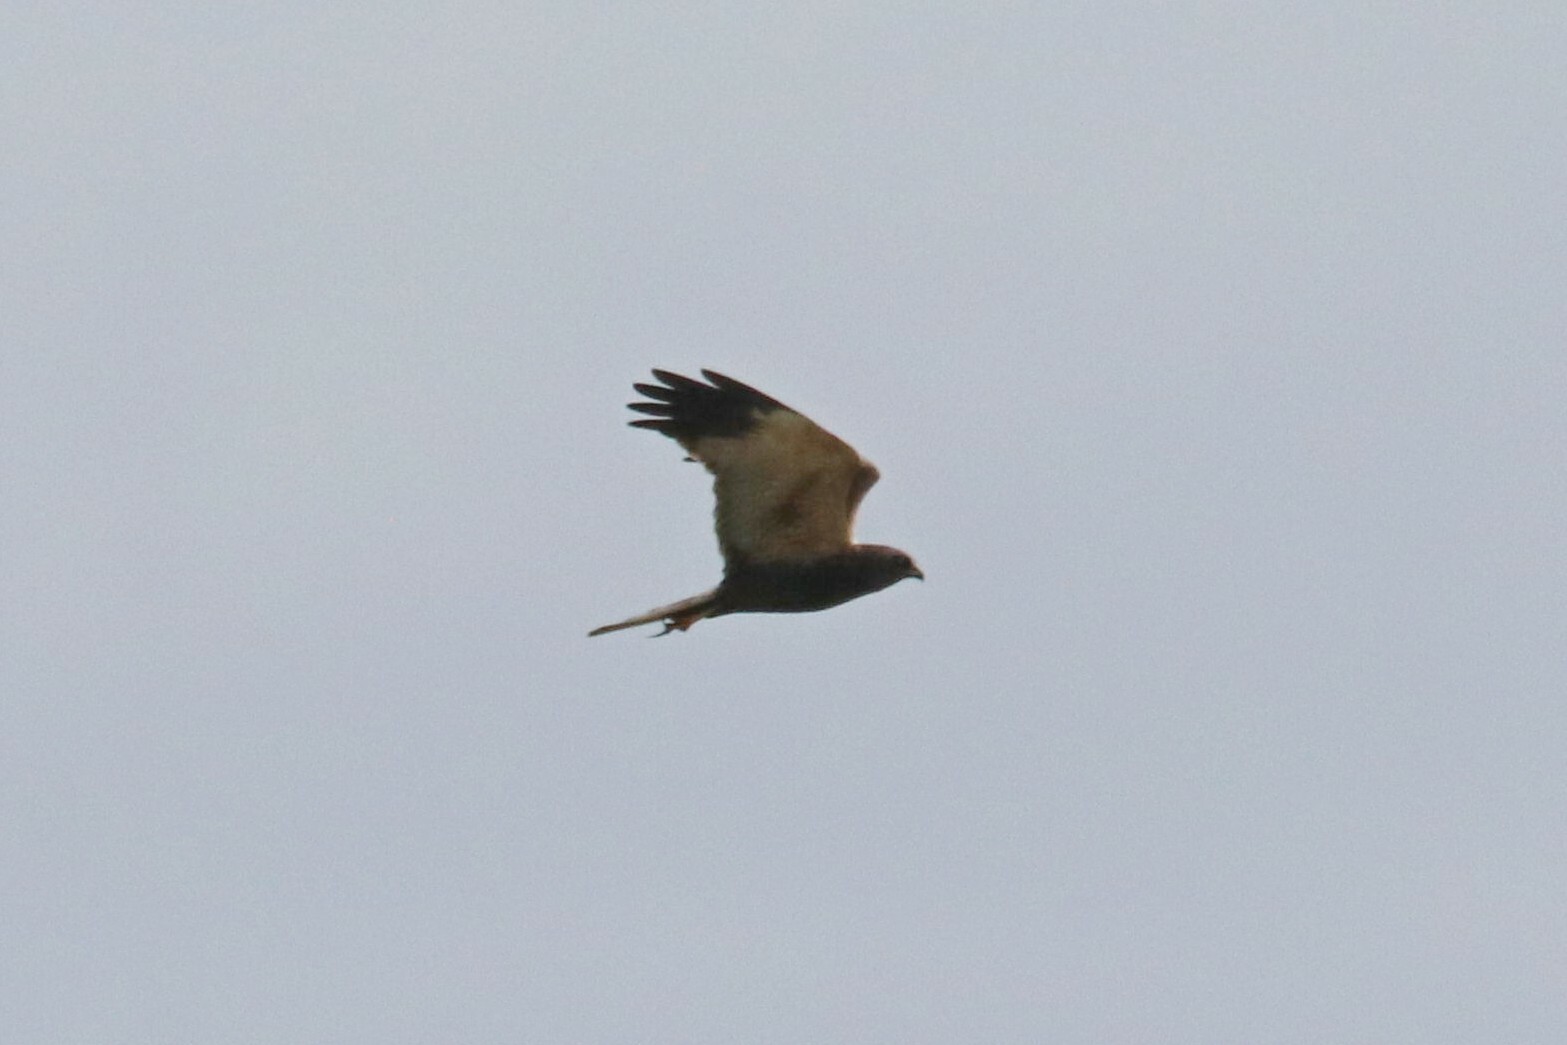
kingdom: Animalia
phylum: Chordata
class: Aves
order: Accipitriformes
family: Accipitridae
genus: Circus
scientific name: Circus aeruginosus
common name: Western marsh harrier
